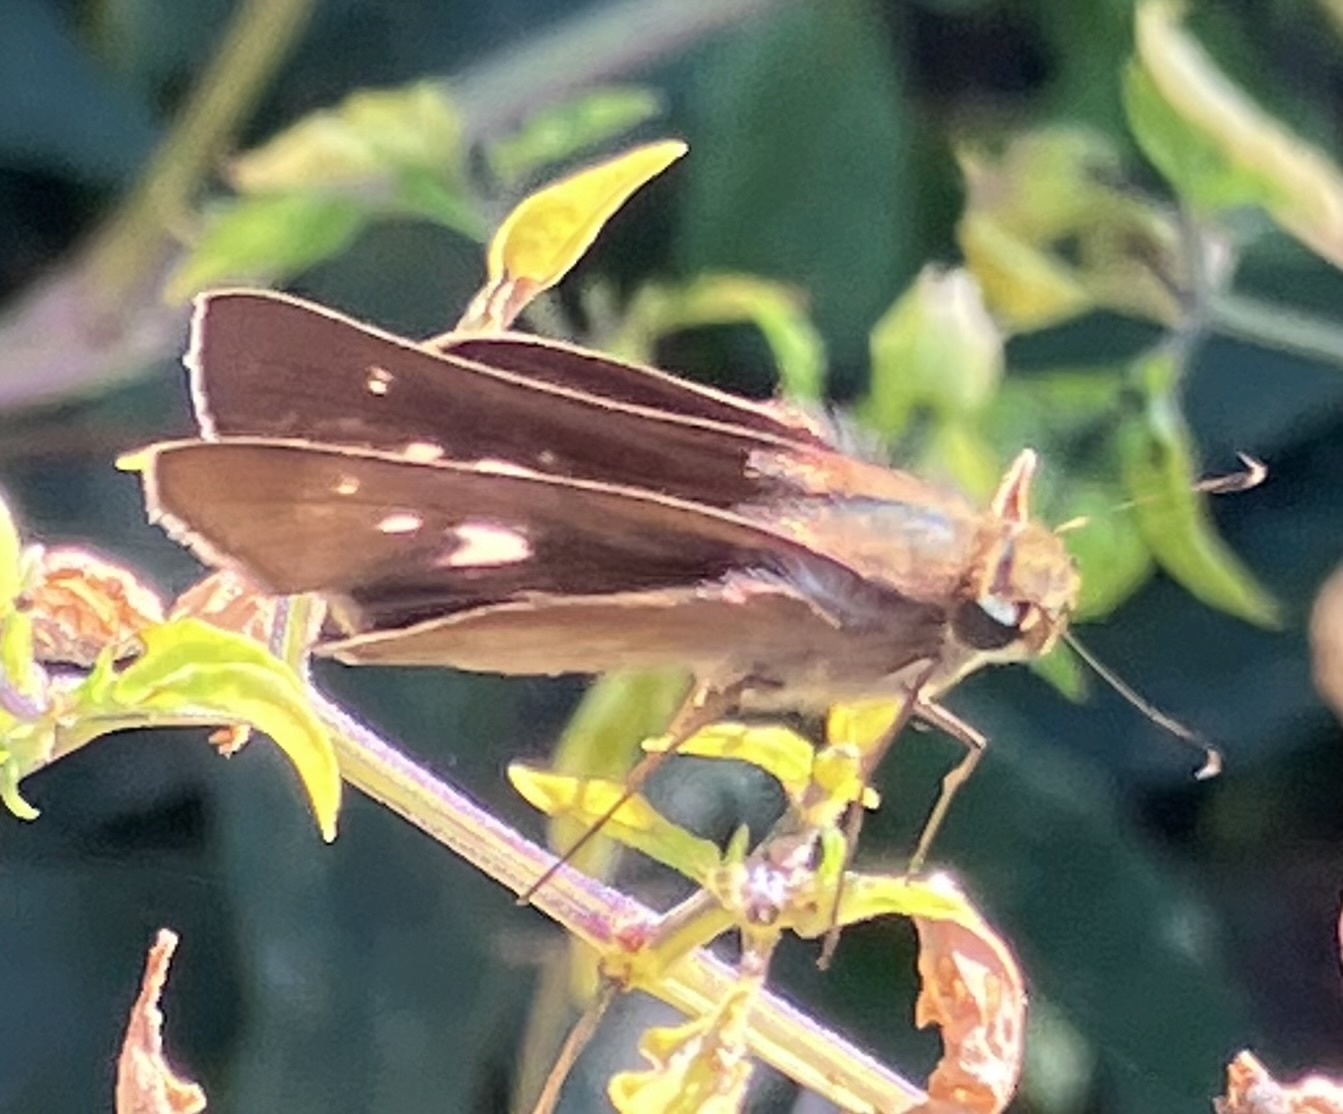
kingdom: Animalia
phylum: Arthropoda
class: Insecta
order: Lepidoptera
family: Hesperiidae
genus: Panoquina
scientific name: Panoquina ocola
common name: Ocola skipper
